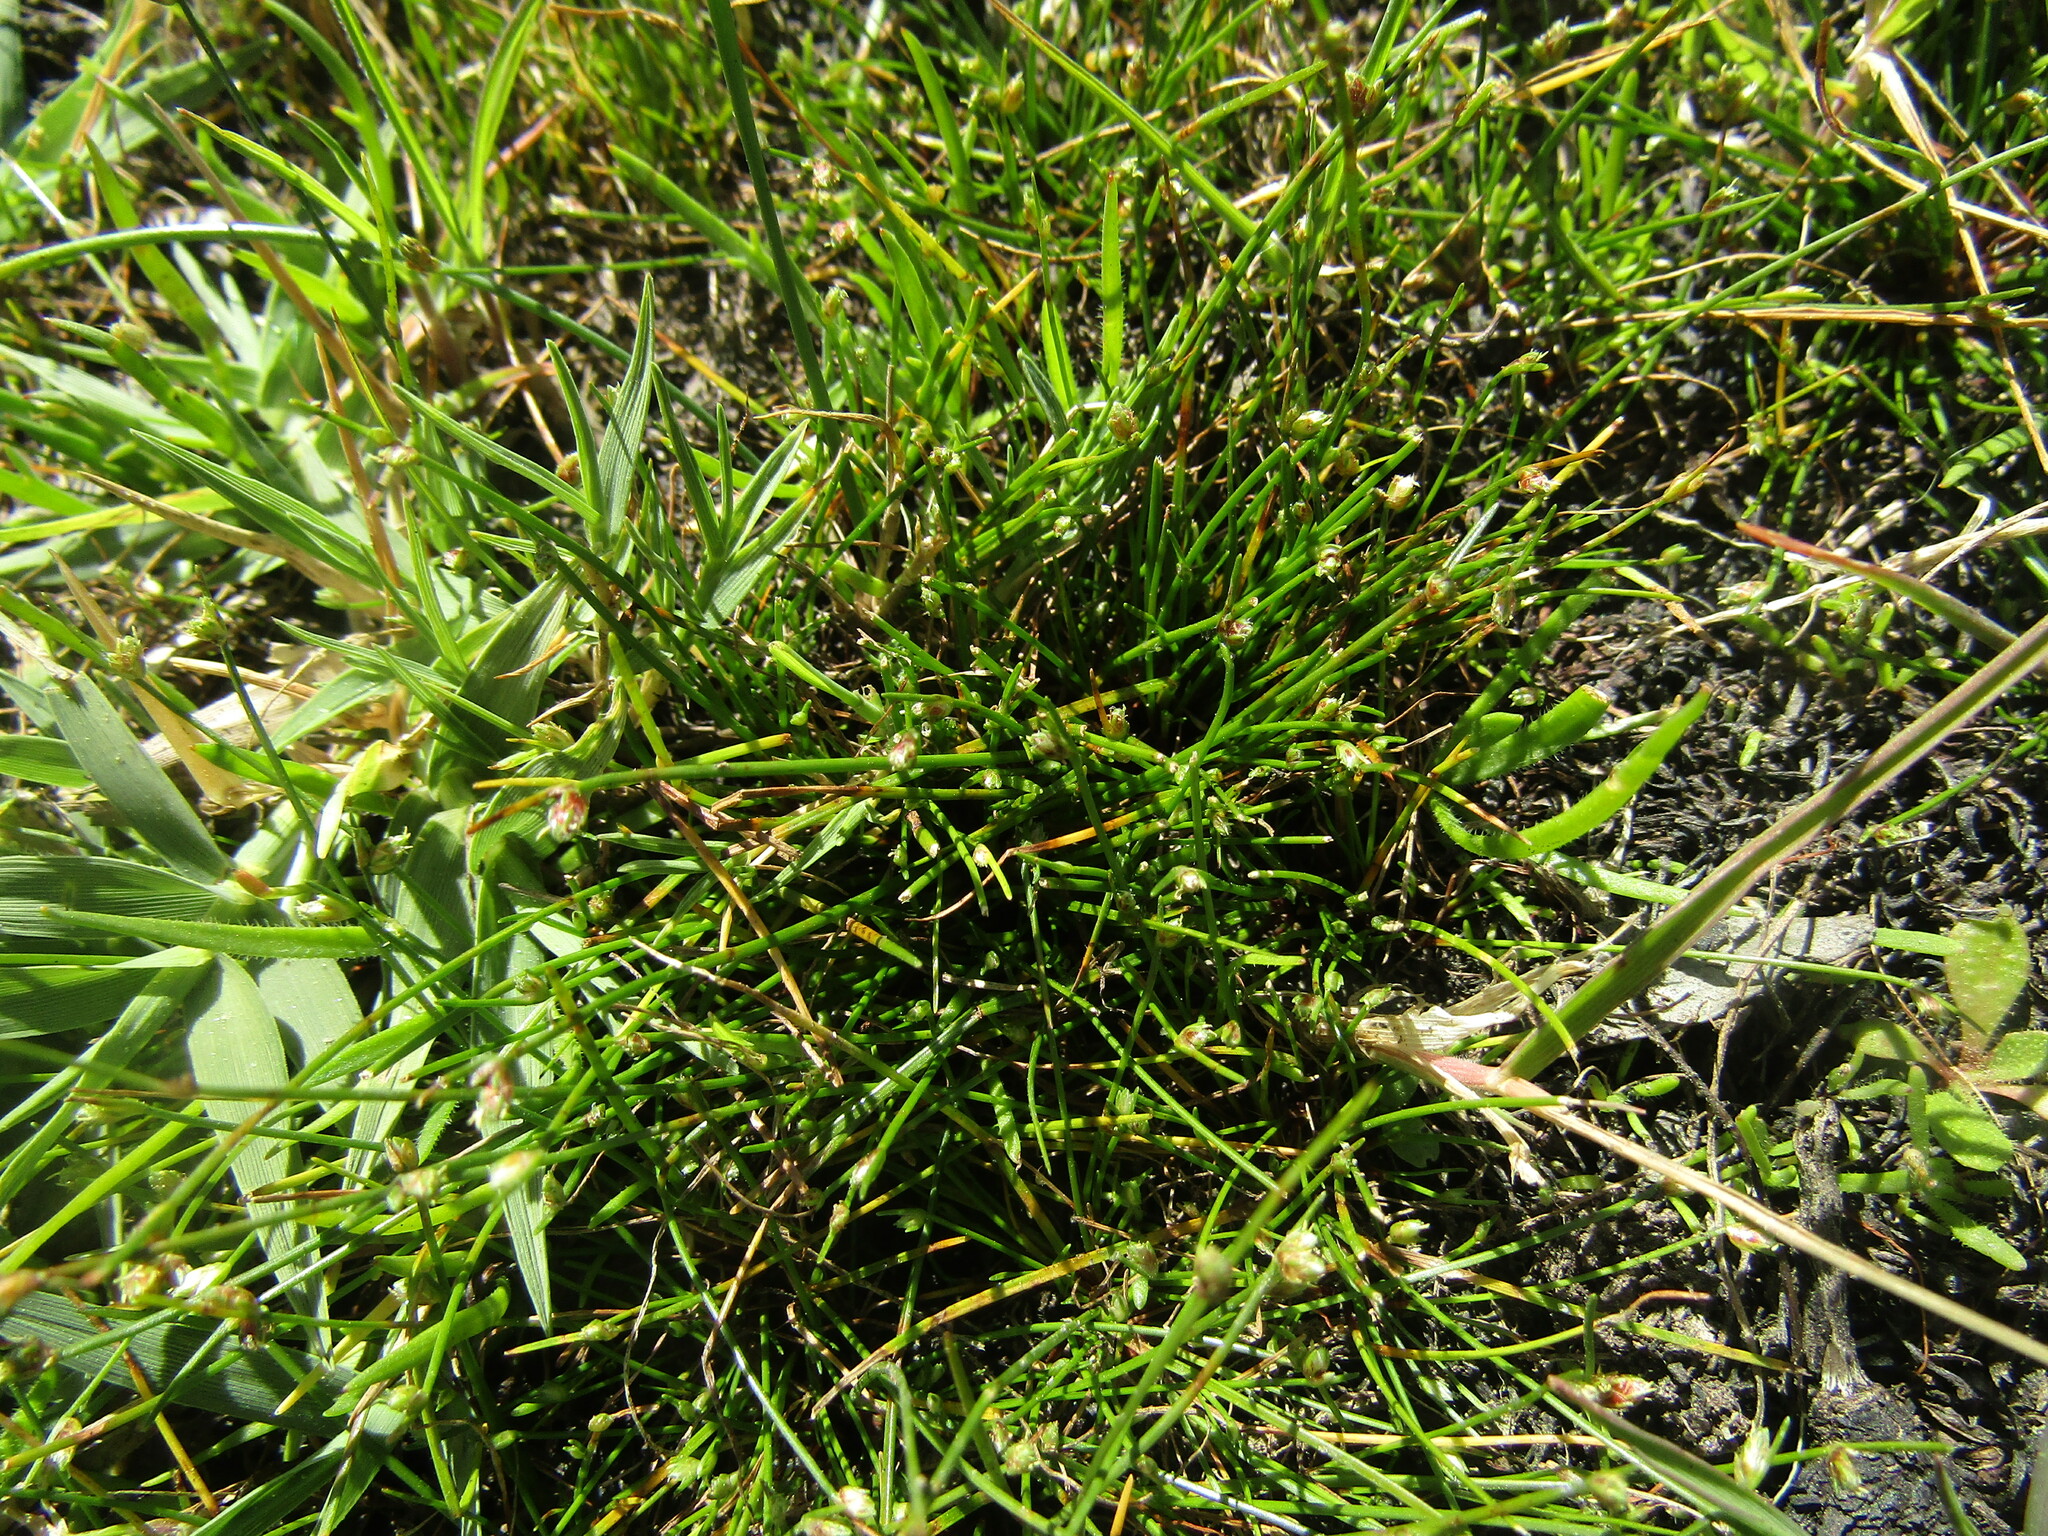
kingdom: Plantae
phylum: Tracheophyta
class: Liliopsida
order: Poales
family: Cyperaceae
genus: Isolepis
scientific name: Isolepis cernua
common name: Slender club-rush
